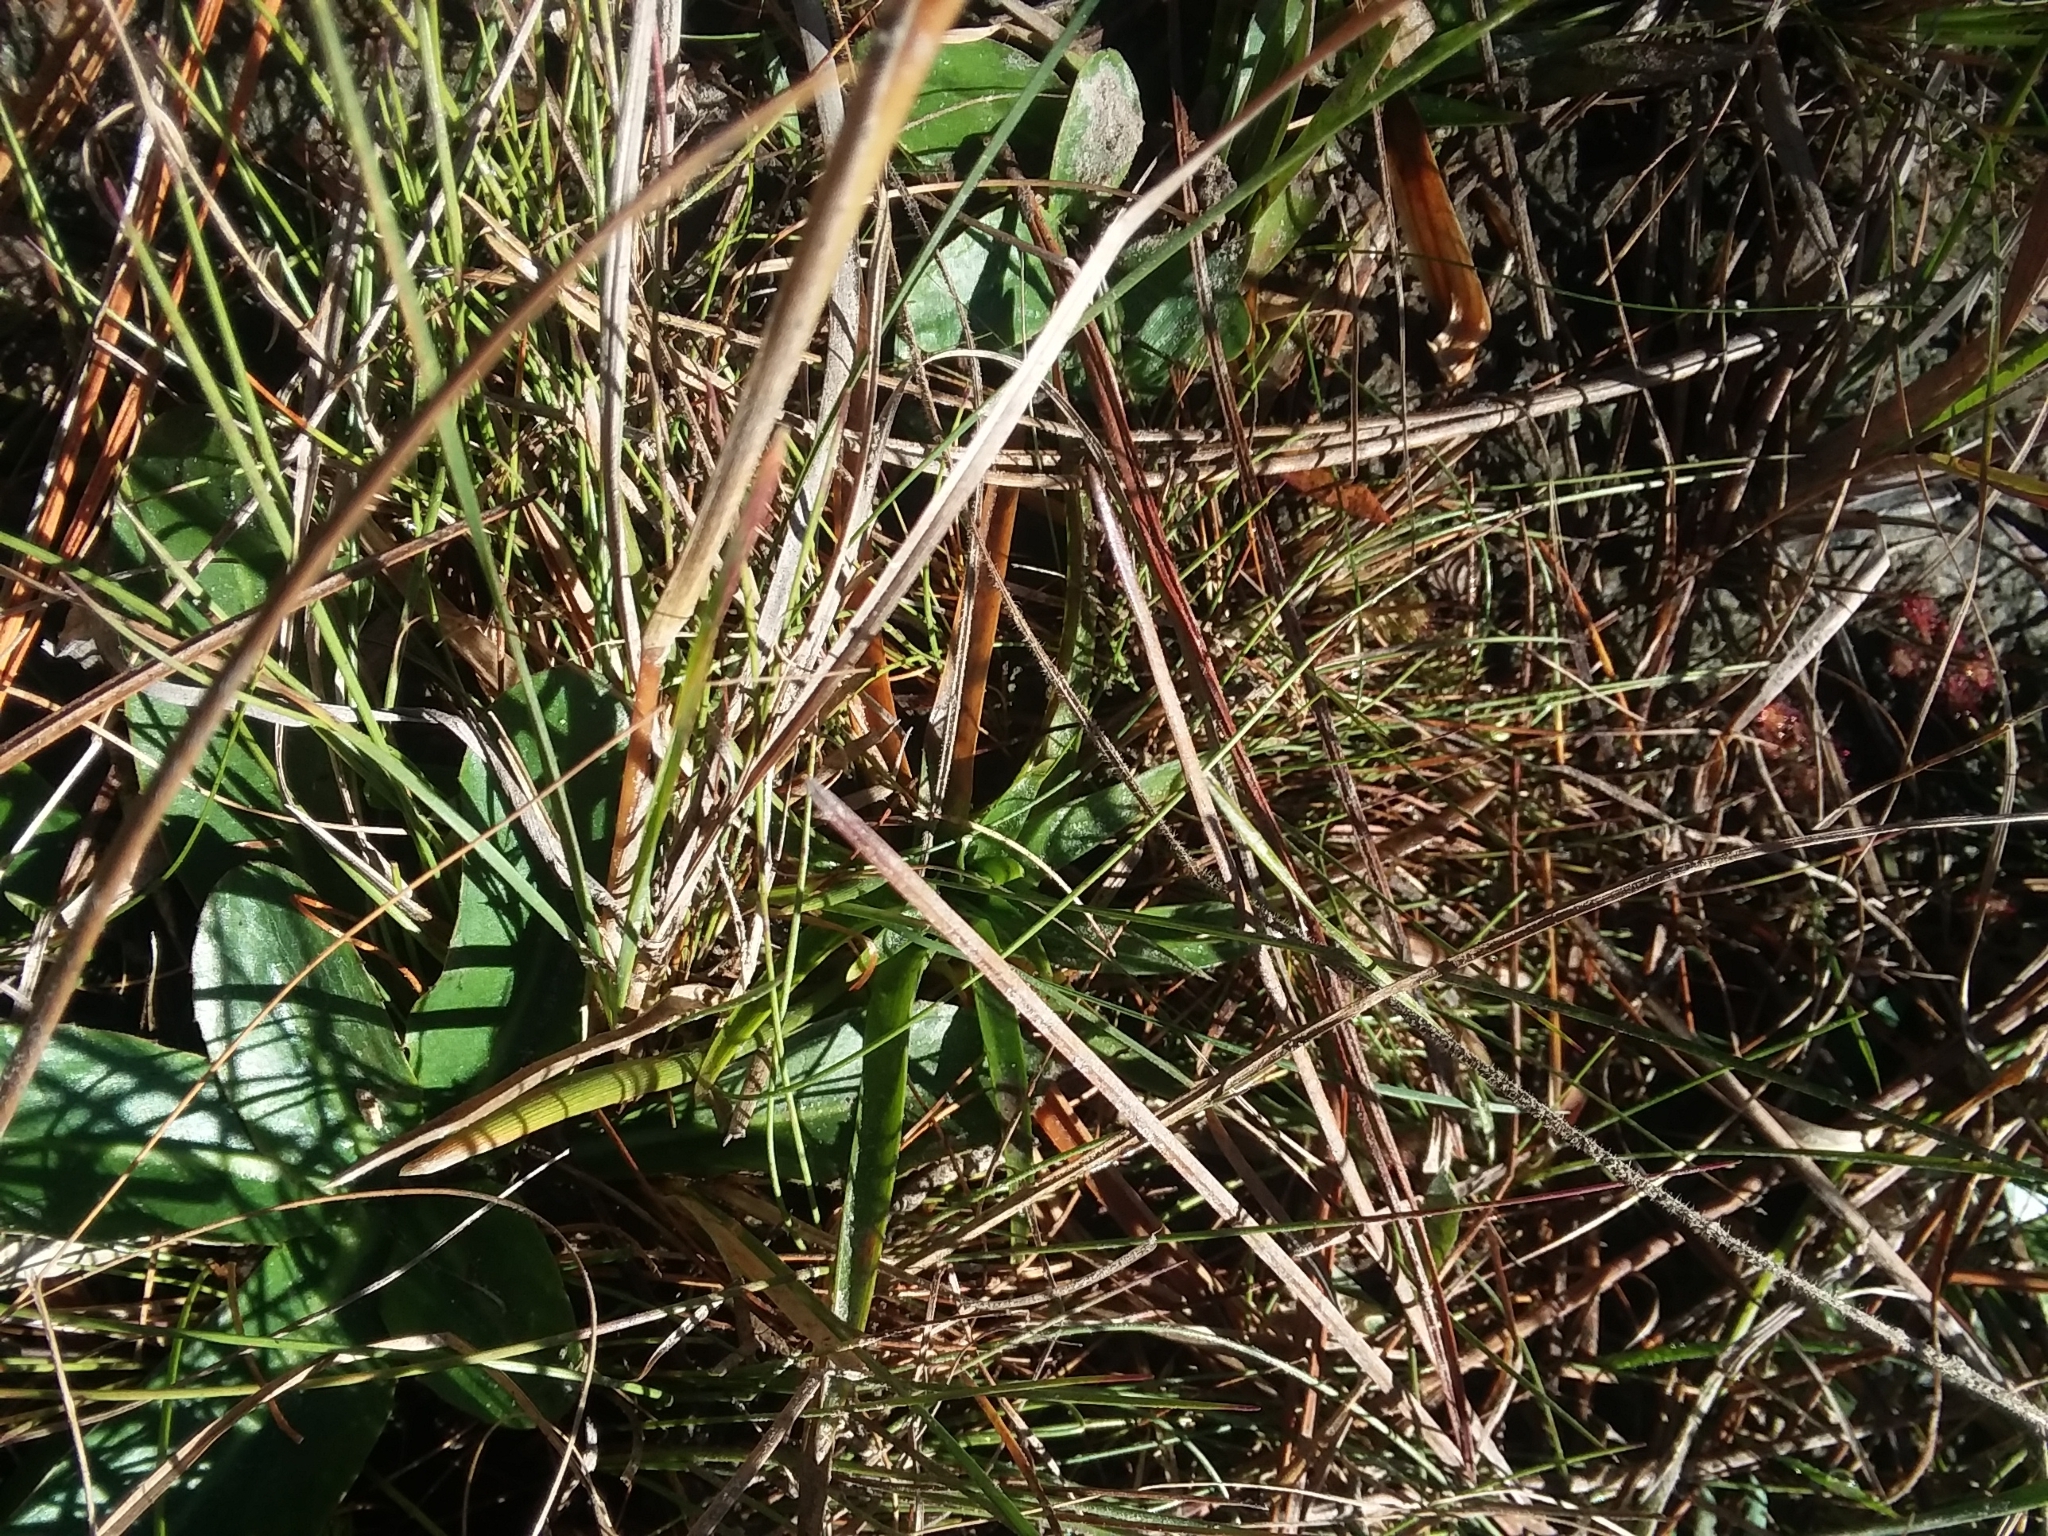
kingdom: Plantae
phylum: Tracheophyta
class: Liliopsida
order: Poales
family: Poaceae
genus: Andropogon
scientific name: Andropogon perangustatus
